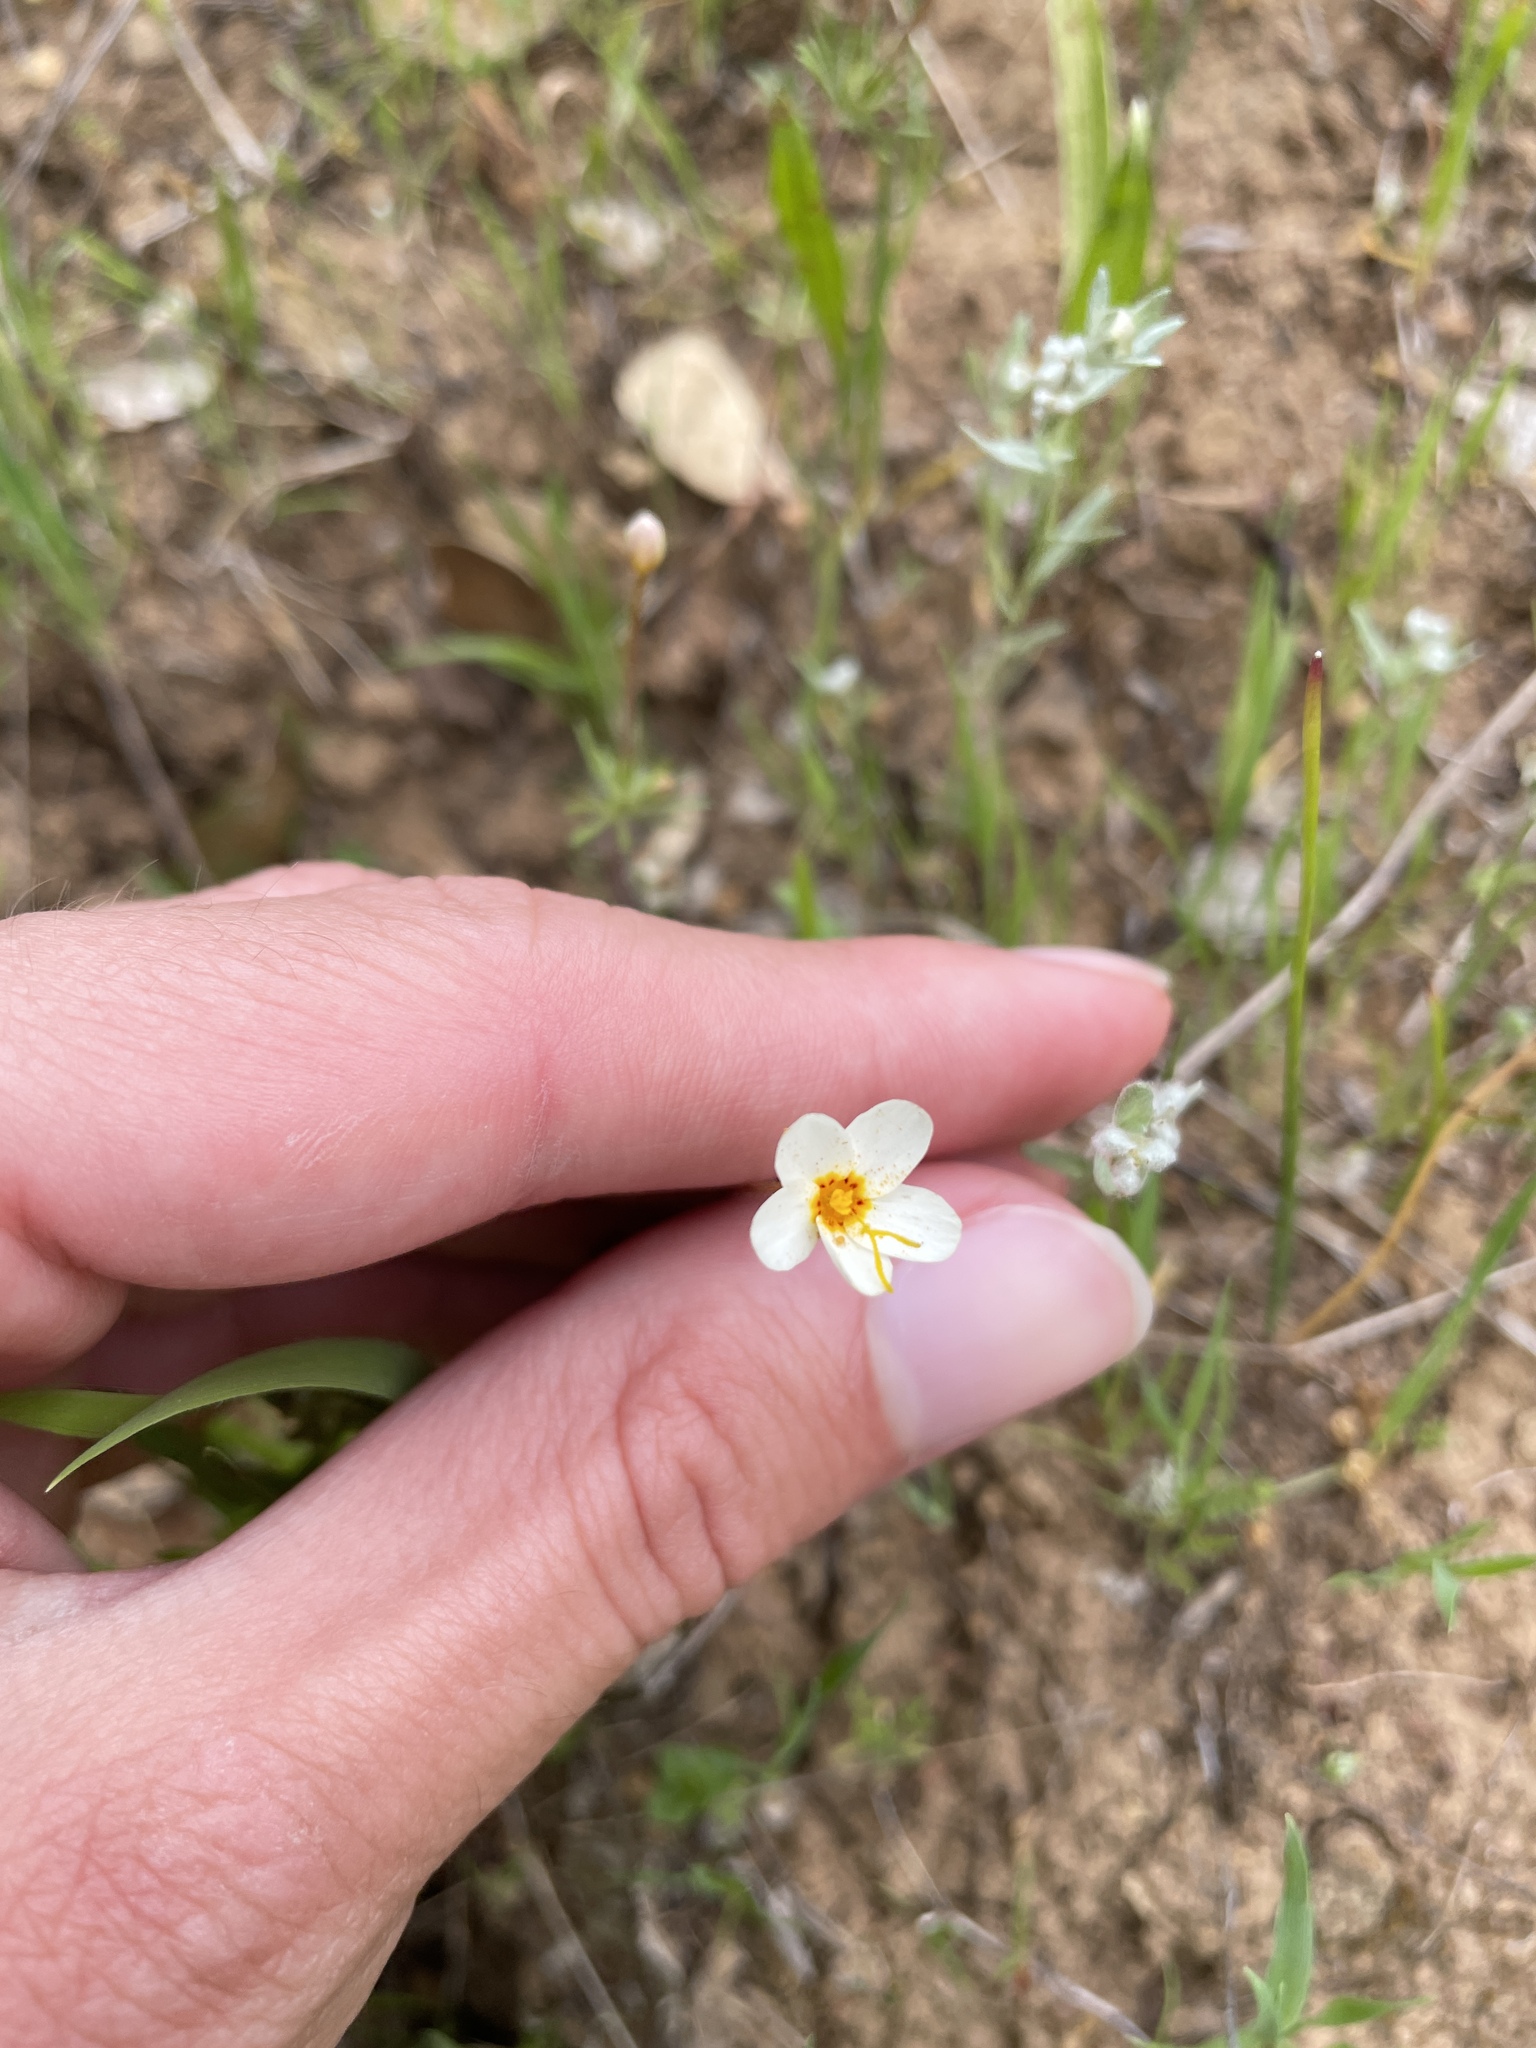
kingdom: Plantae
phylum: Tracheophyta
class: Magnoliopsida
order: Ericales
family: Polemoniaceae
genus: Leptosiphon
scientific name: Leptosiphon parviflorus
